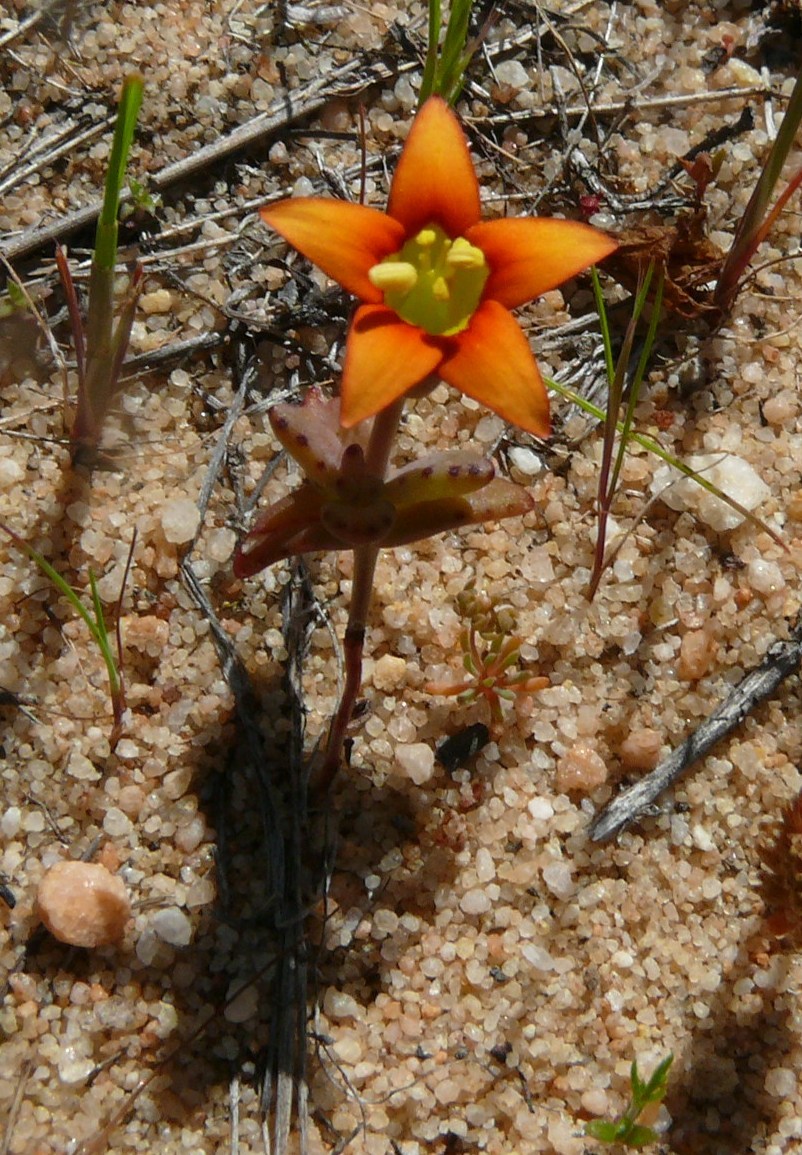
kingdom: Plantae
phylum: Tracheophyta
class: Magnoliopsida
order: Saxifragales
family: Crassulaceae
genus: Crassula
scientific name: Crassula dichotoma
